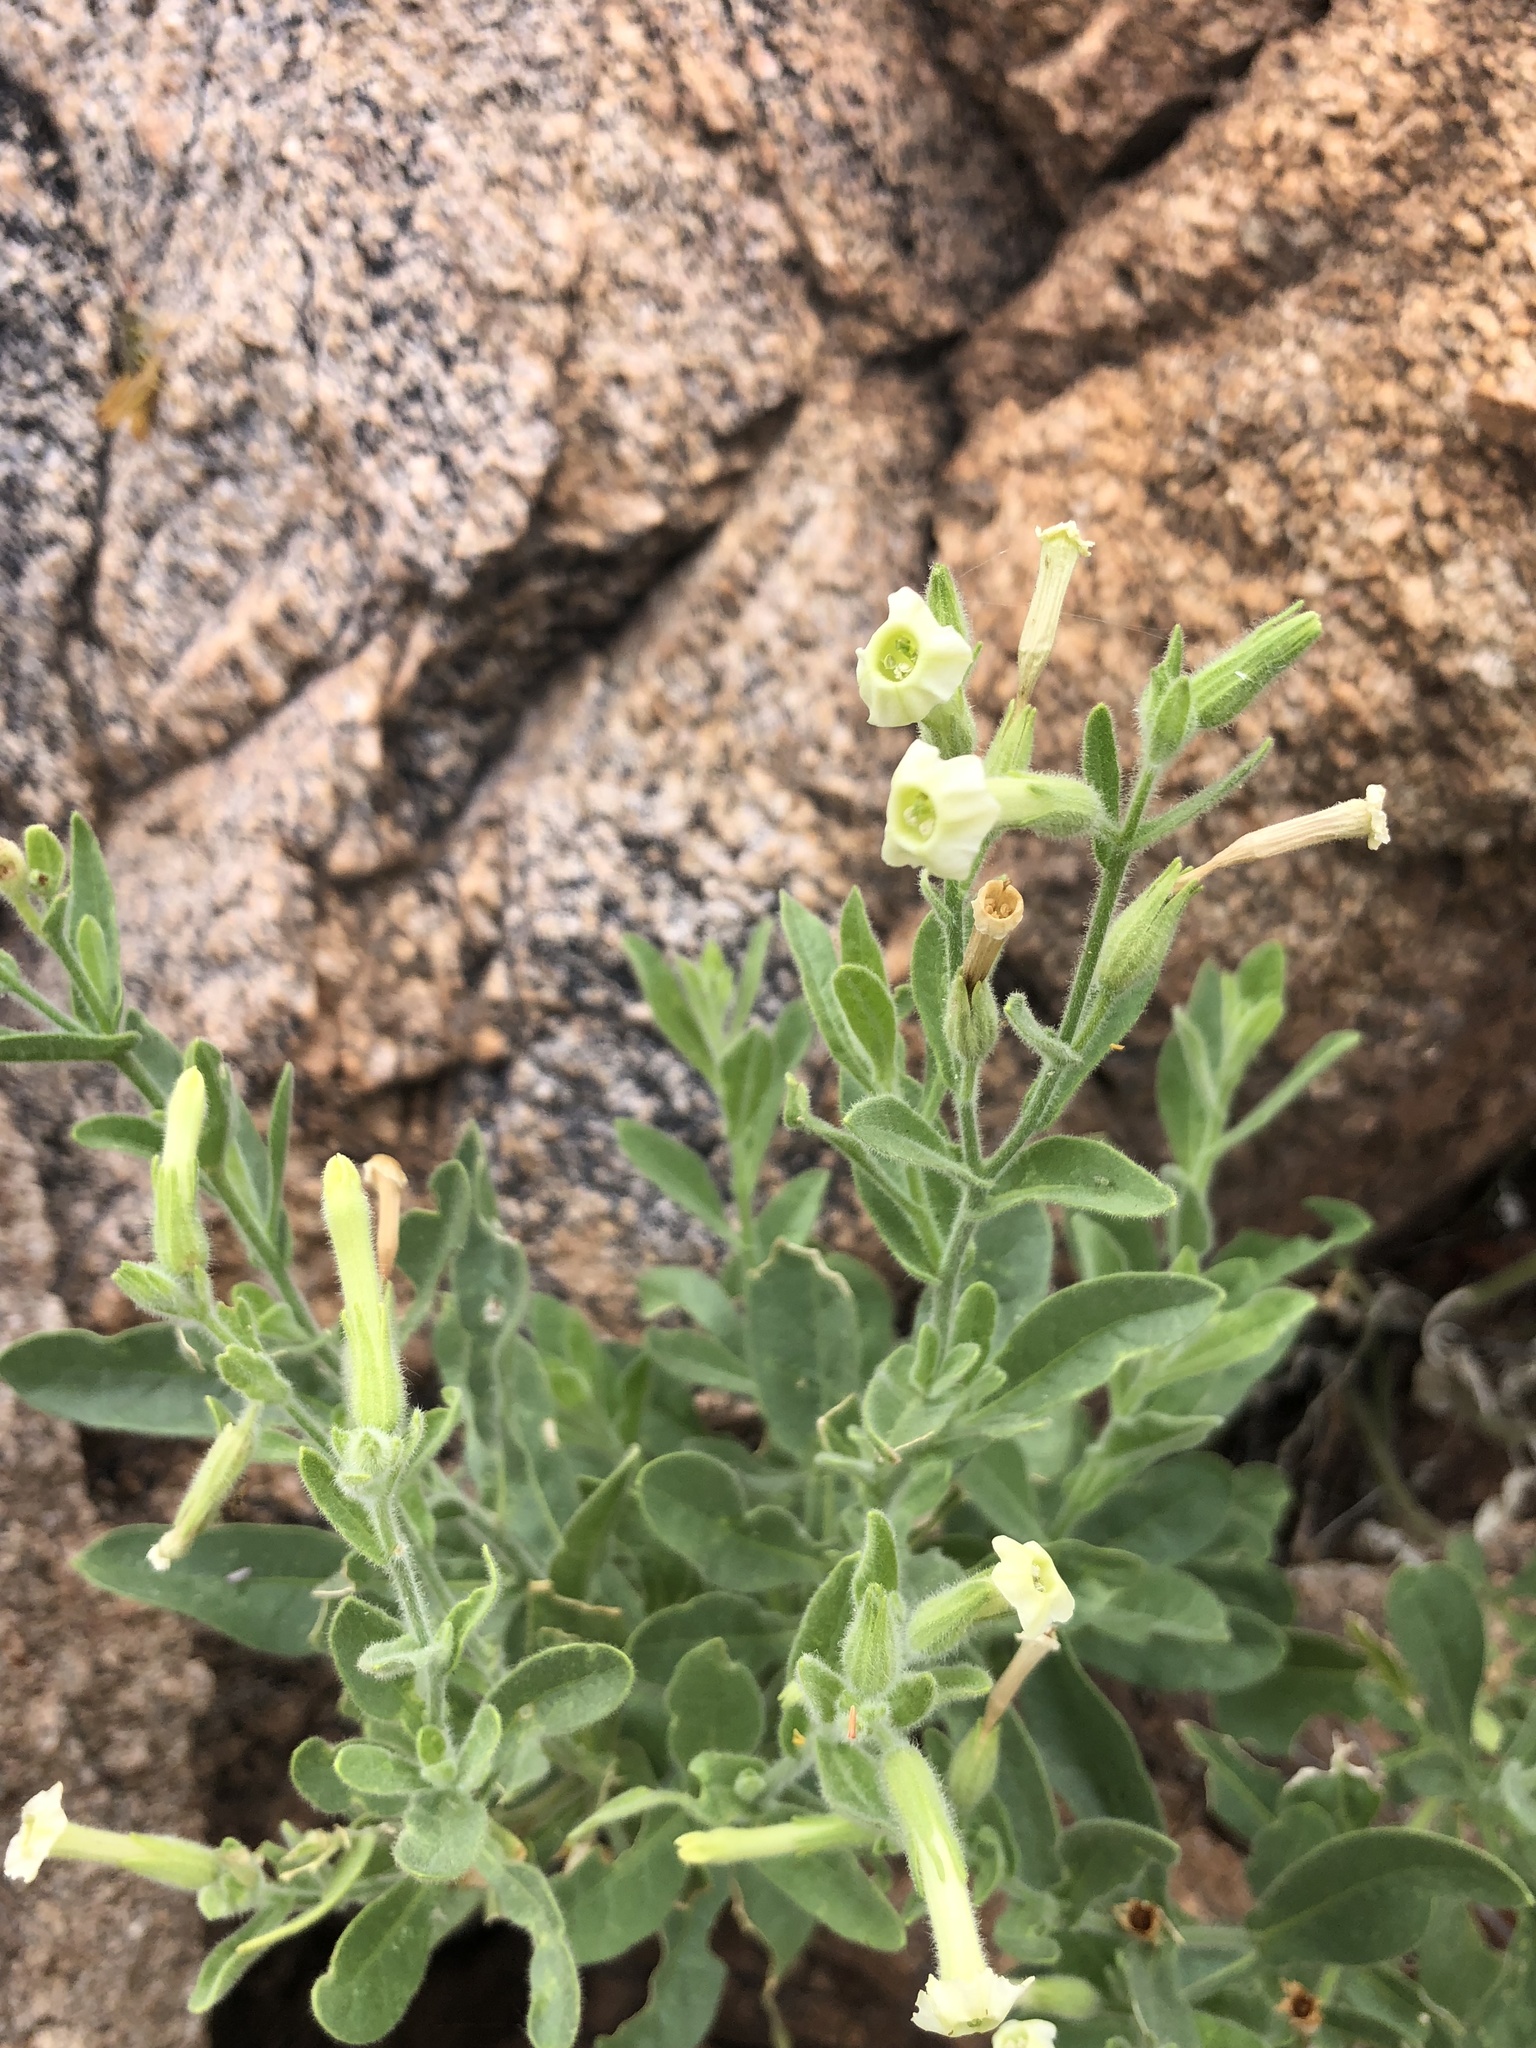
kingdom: Plantae
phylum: Tracheophyta
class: Magnoliopsida
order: Solanales
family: Solanaceae
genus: Nicotiana
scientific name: Nicotiana obtusifolia
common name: Desert tobacco
